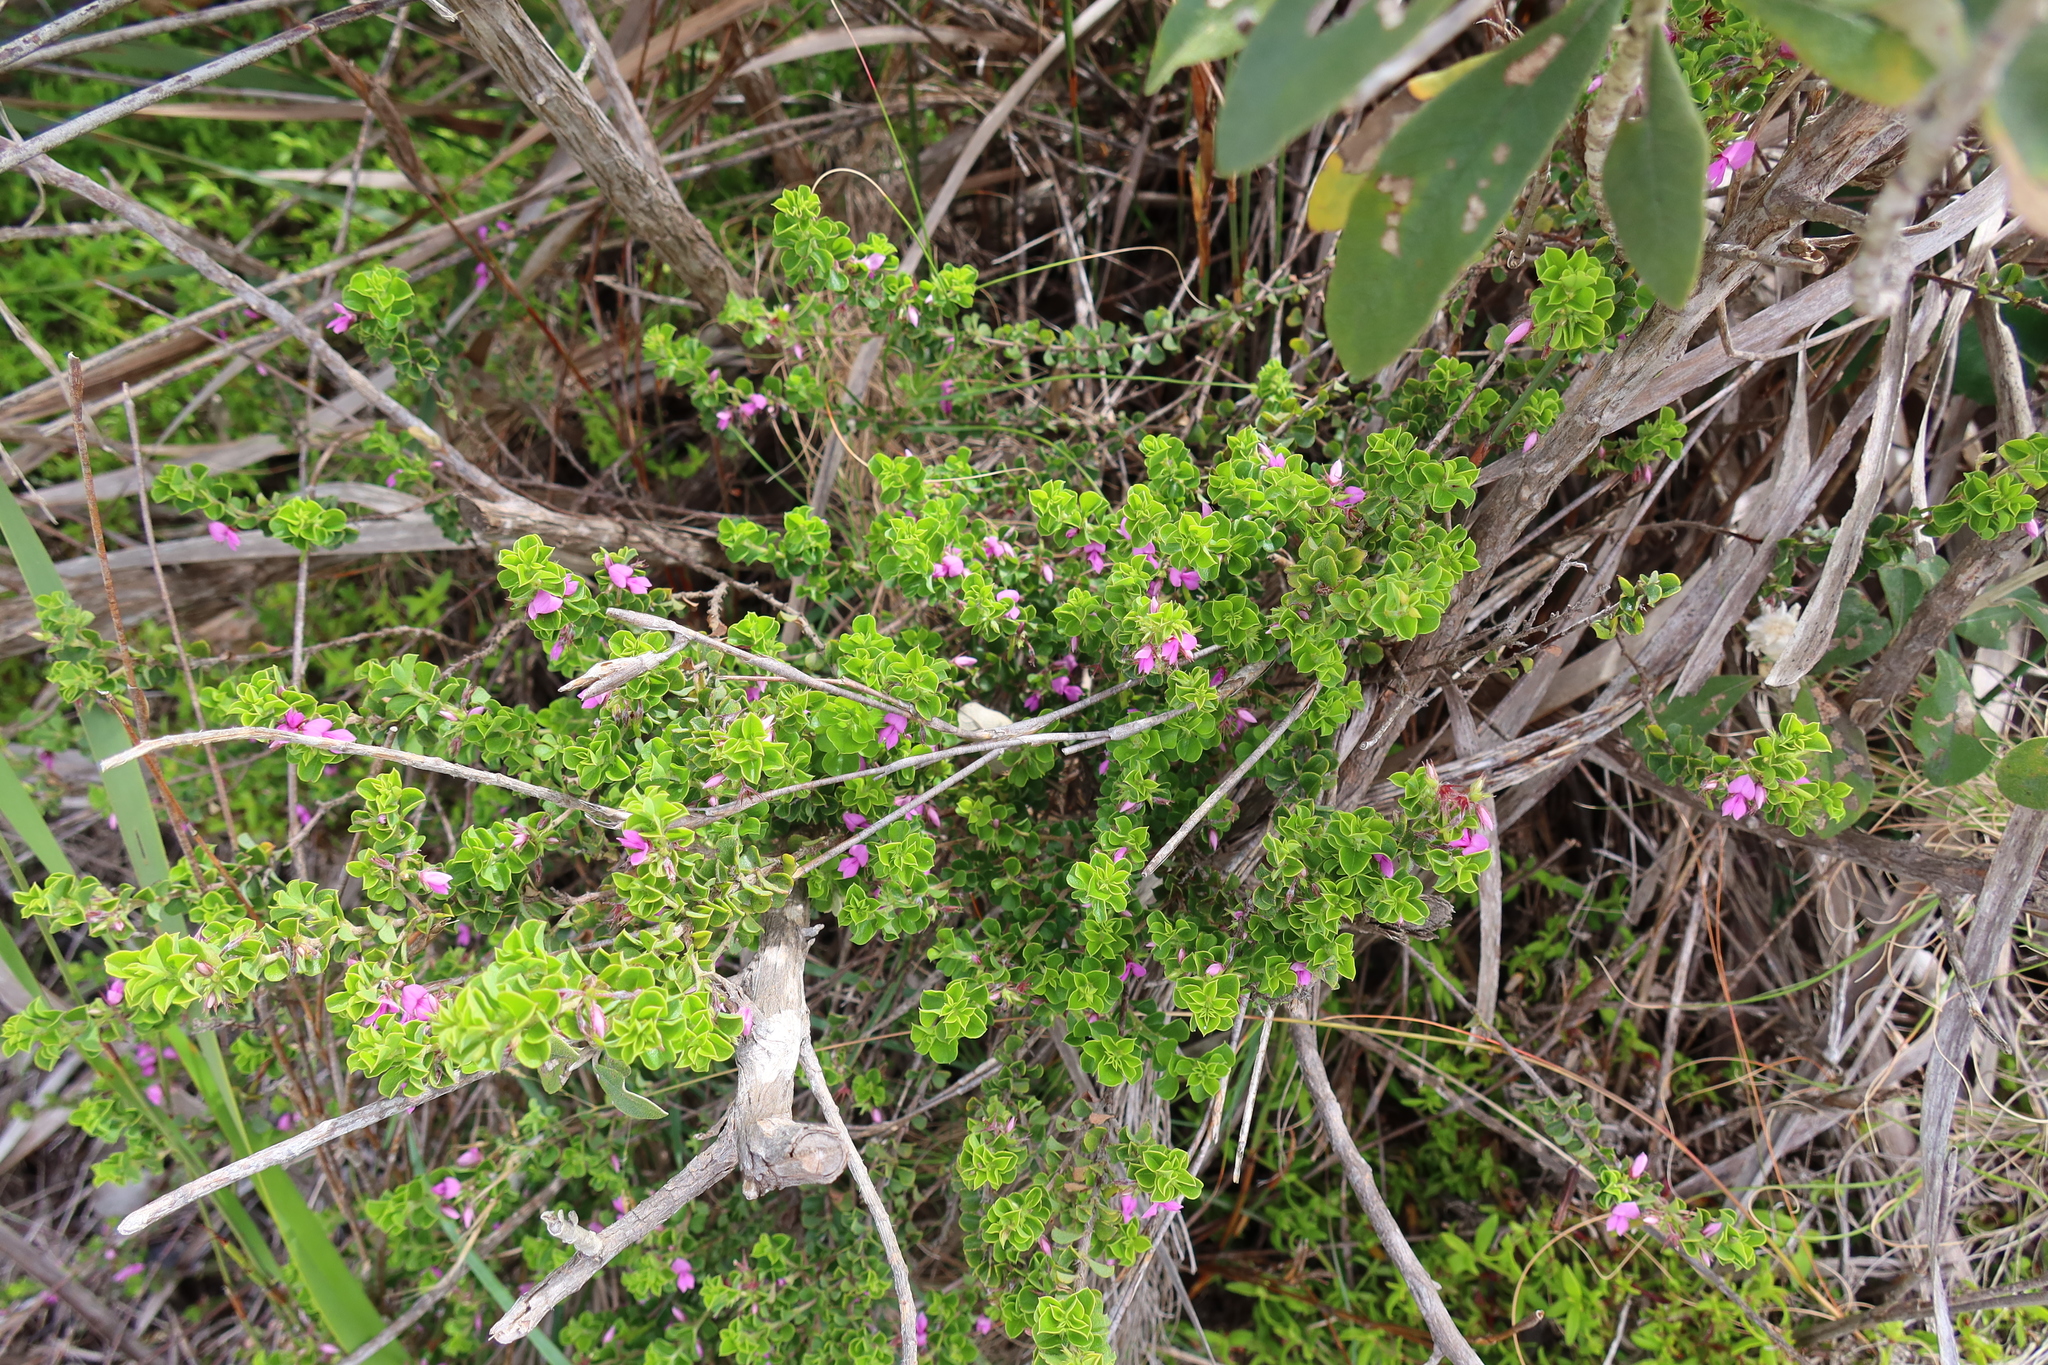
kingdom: Plantae
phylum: Tracheophyta
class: Magnoliopsida
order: Fabales
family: Fabaceae
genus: Indigofera
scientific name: Indigofera candolleana
